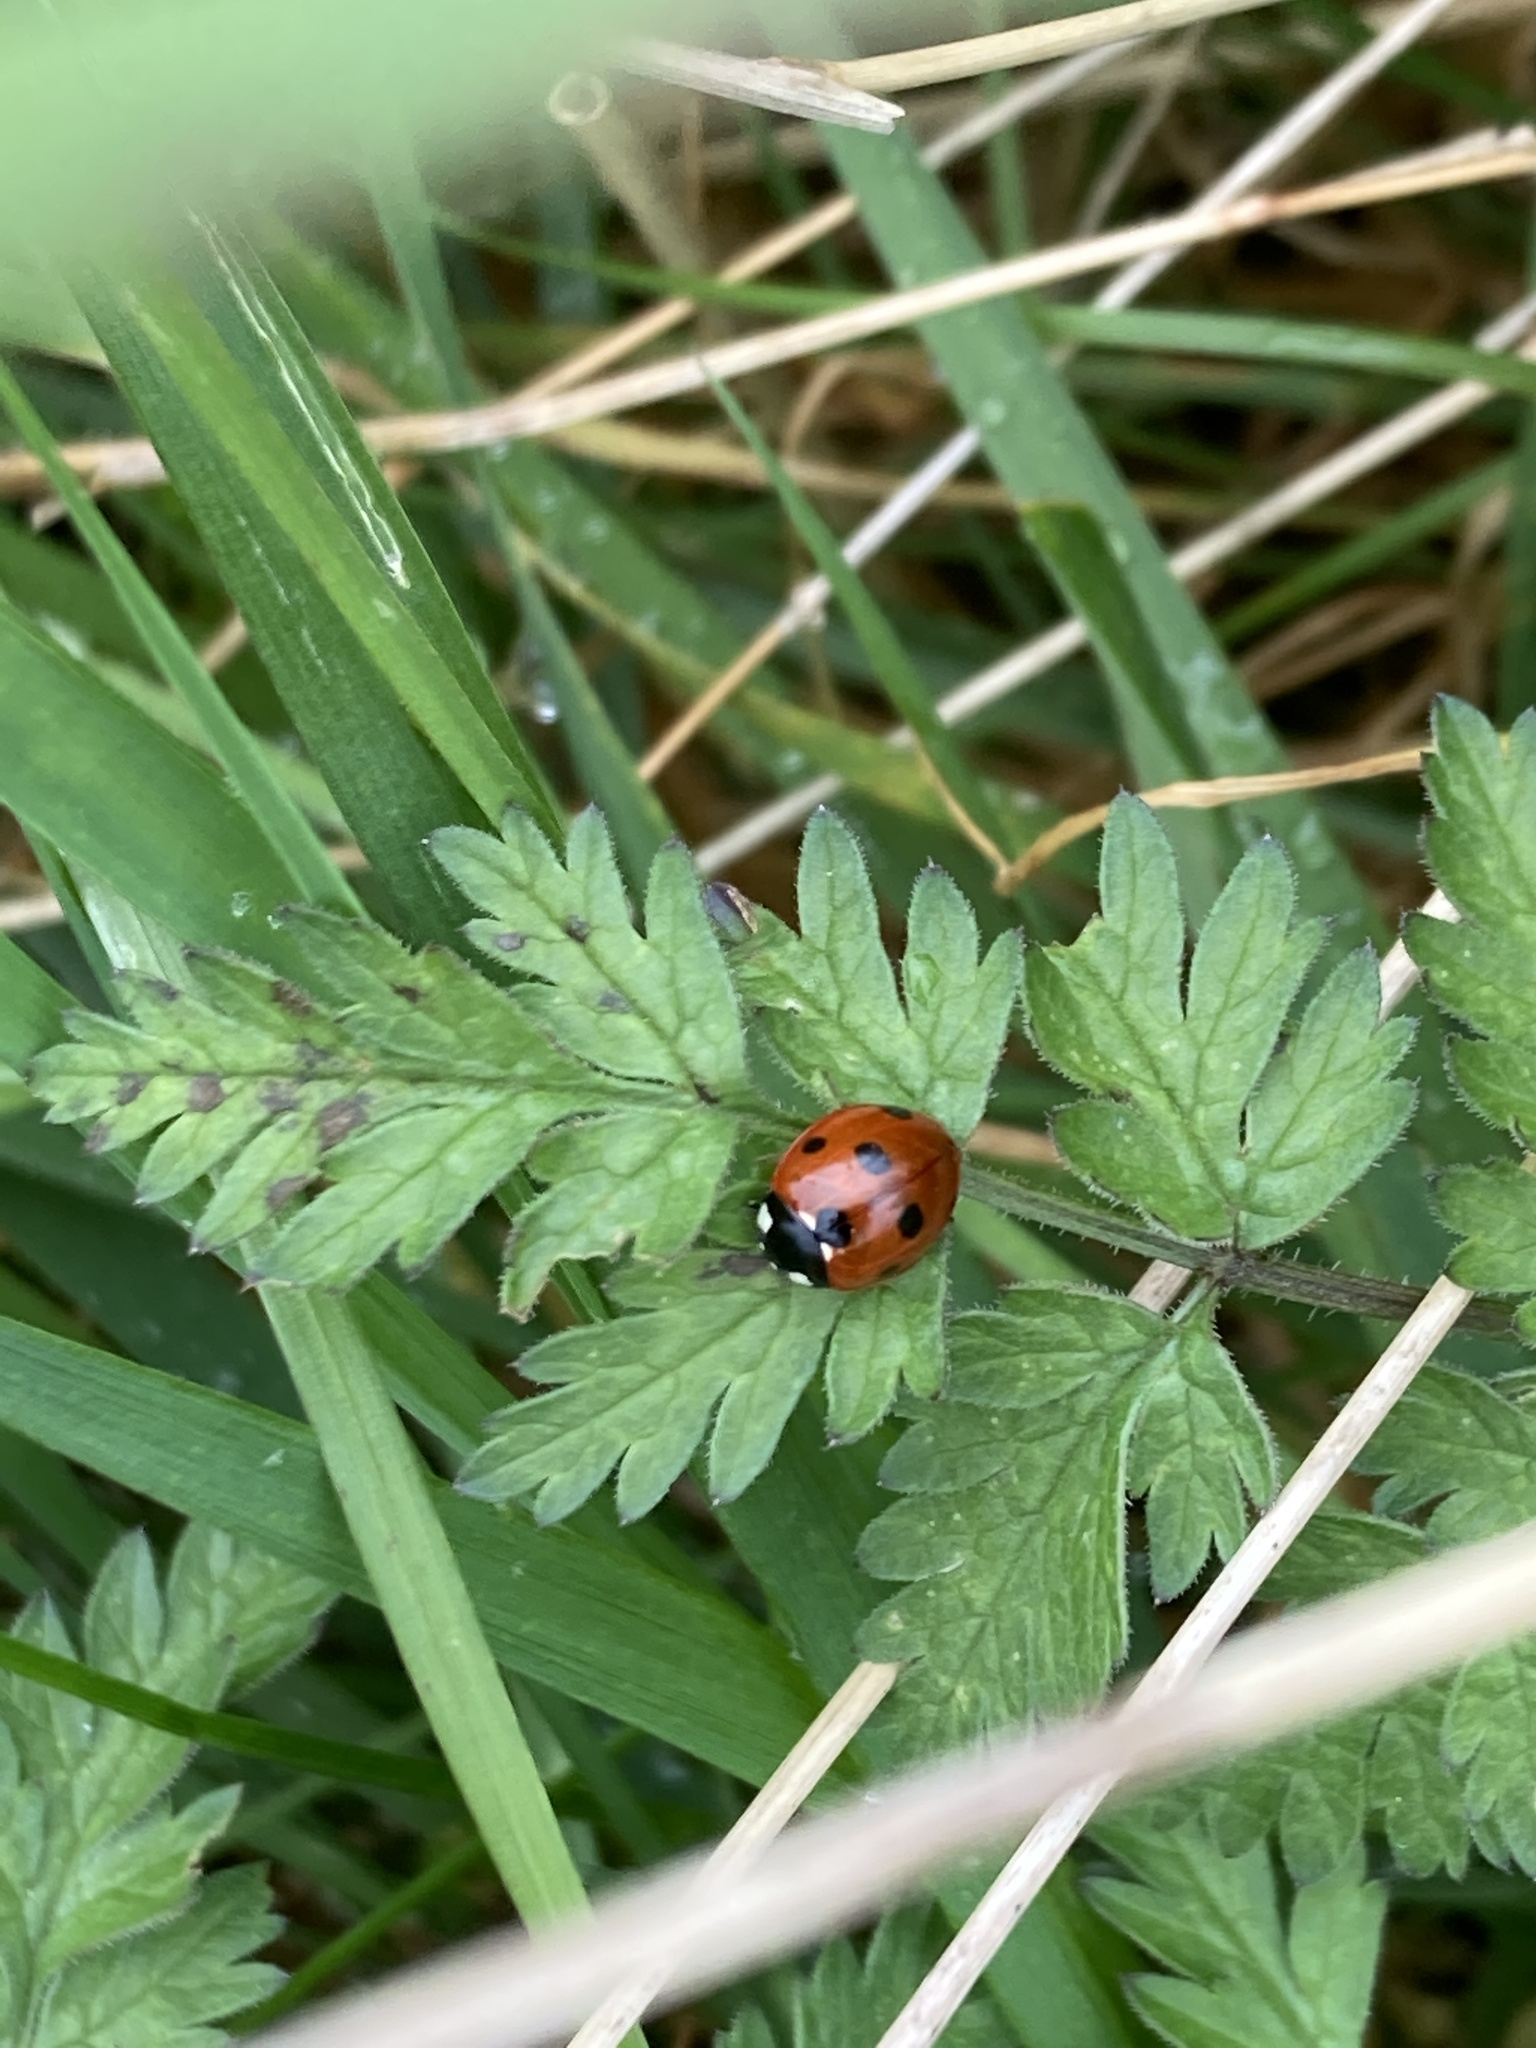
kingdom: Animalia
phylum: Arthropoda
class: Insecta
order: Coleoptera
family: Coccinellidae
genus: Coccinella
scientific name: Coccinella septempunctata
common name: Sevenspotted lady beetle
